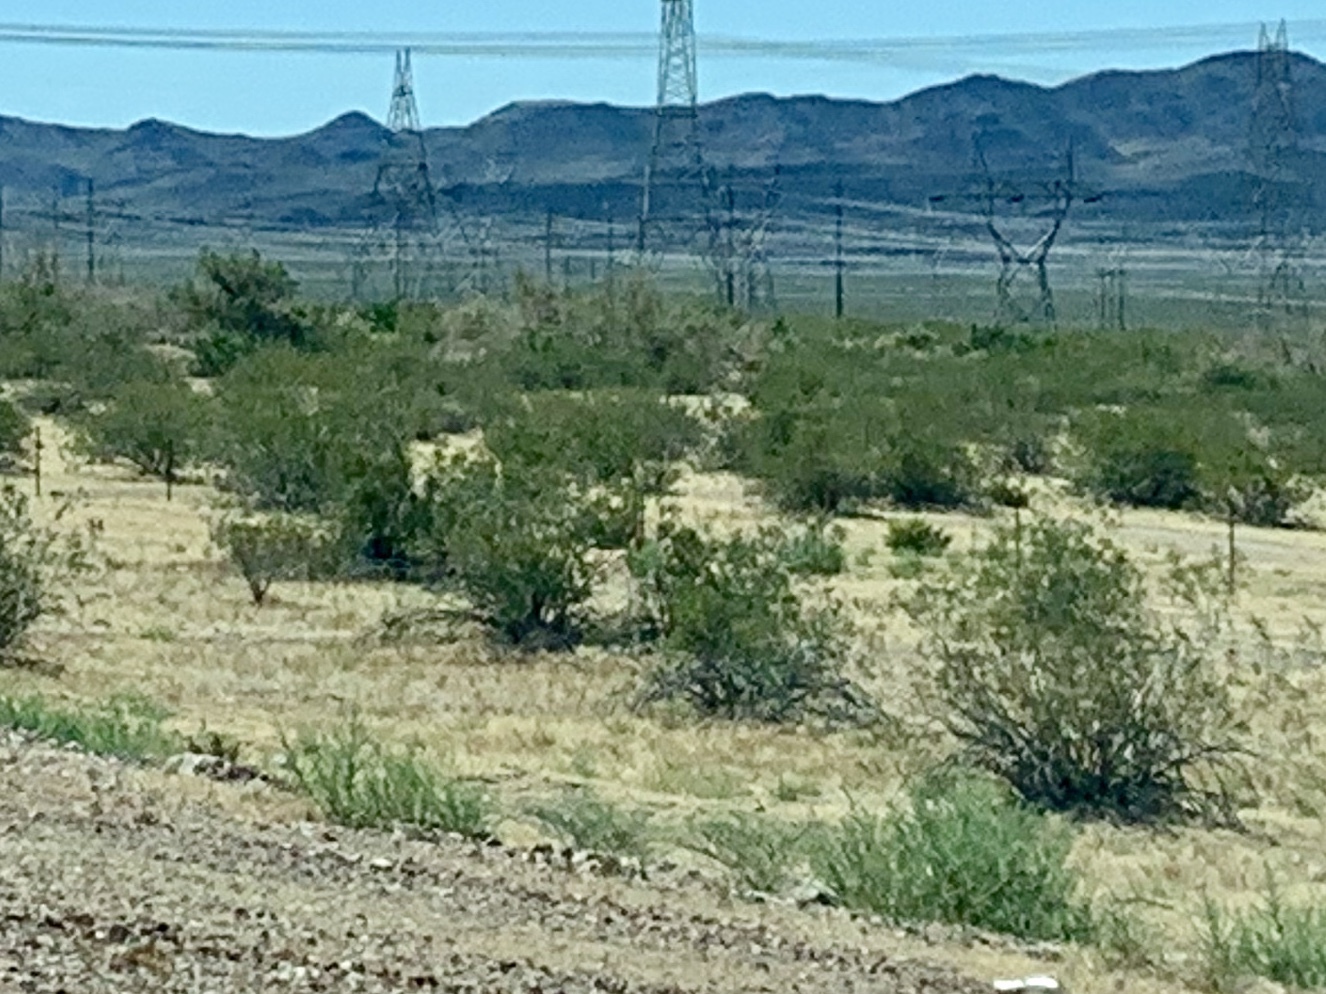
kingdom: Plantae
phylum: Tracheophyta
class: Magnoliopsida
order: Zygophyllales
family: Zygophyllaceae
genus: Larrea
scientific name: Larrea tridentata
